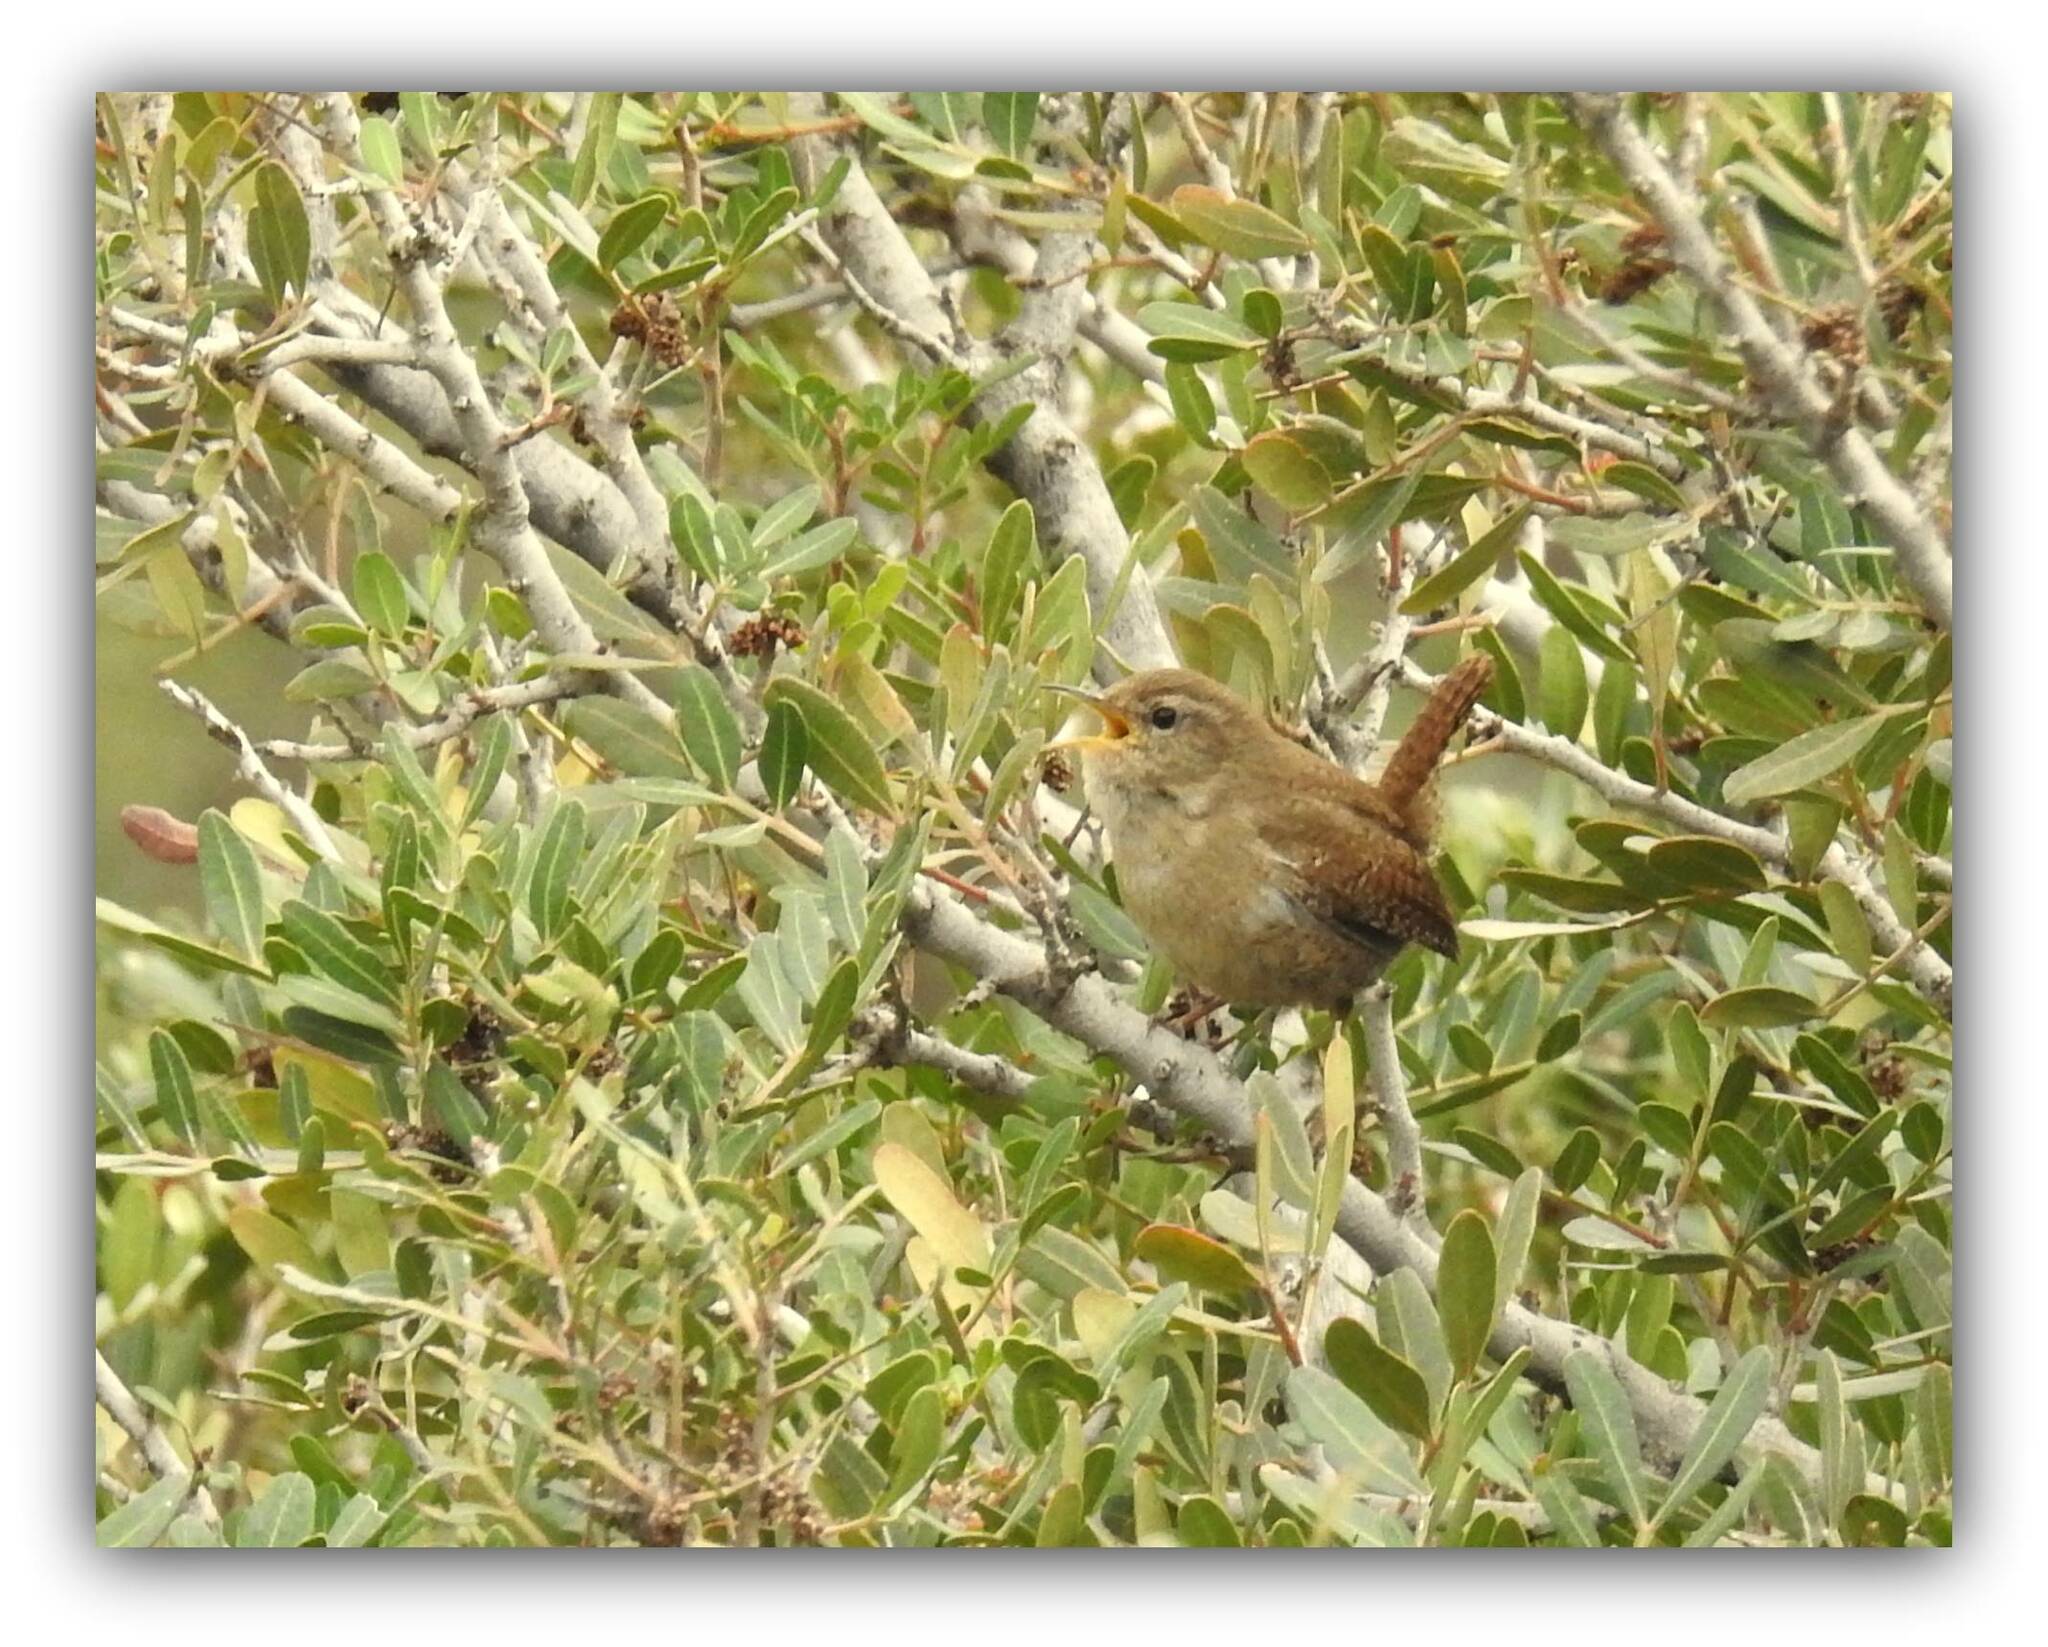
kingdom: Animalia
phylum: Chordata
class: Aves
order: Passeriformes
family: Troglodytidae
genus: Troglodytes
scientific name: Troglodytes troglodytes
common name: Eurasian wren
